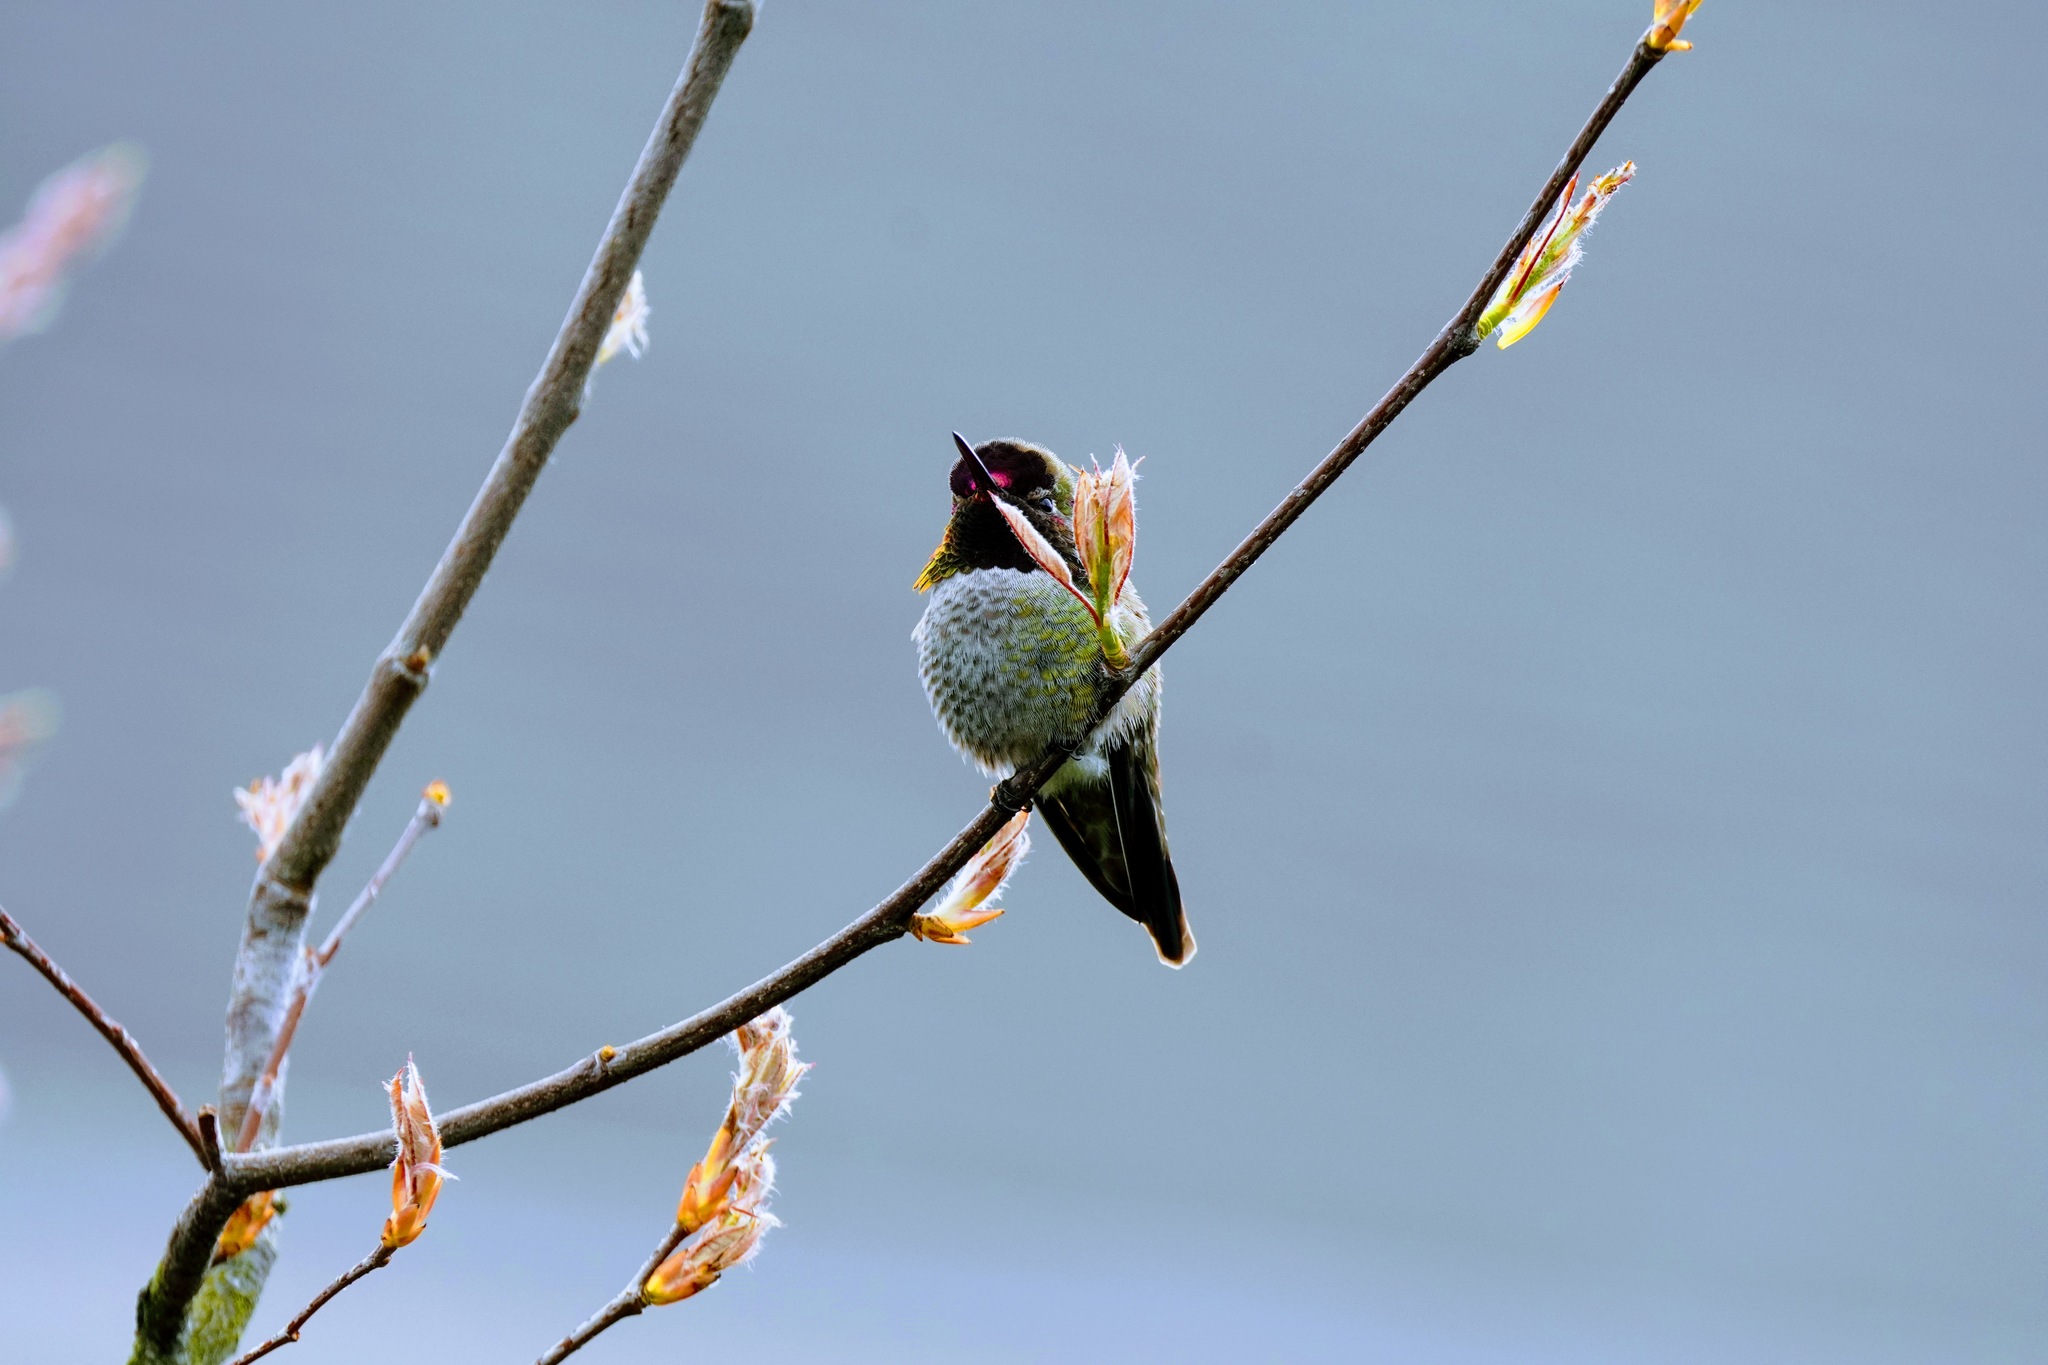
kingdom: Animalia
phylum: Chordata
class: Aves
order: Apodiformes
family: Trochilidae
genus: Calypte
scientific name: Calypte anna
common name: Anna's hummingbird
